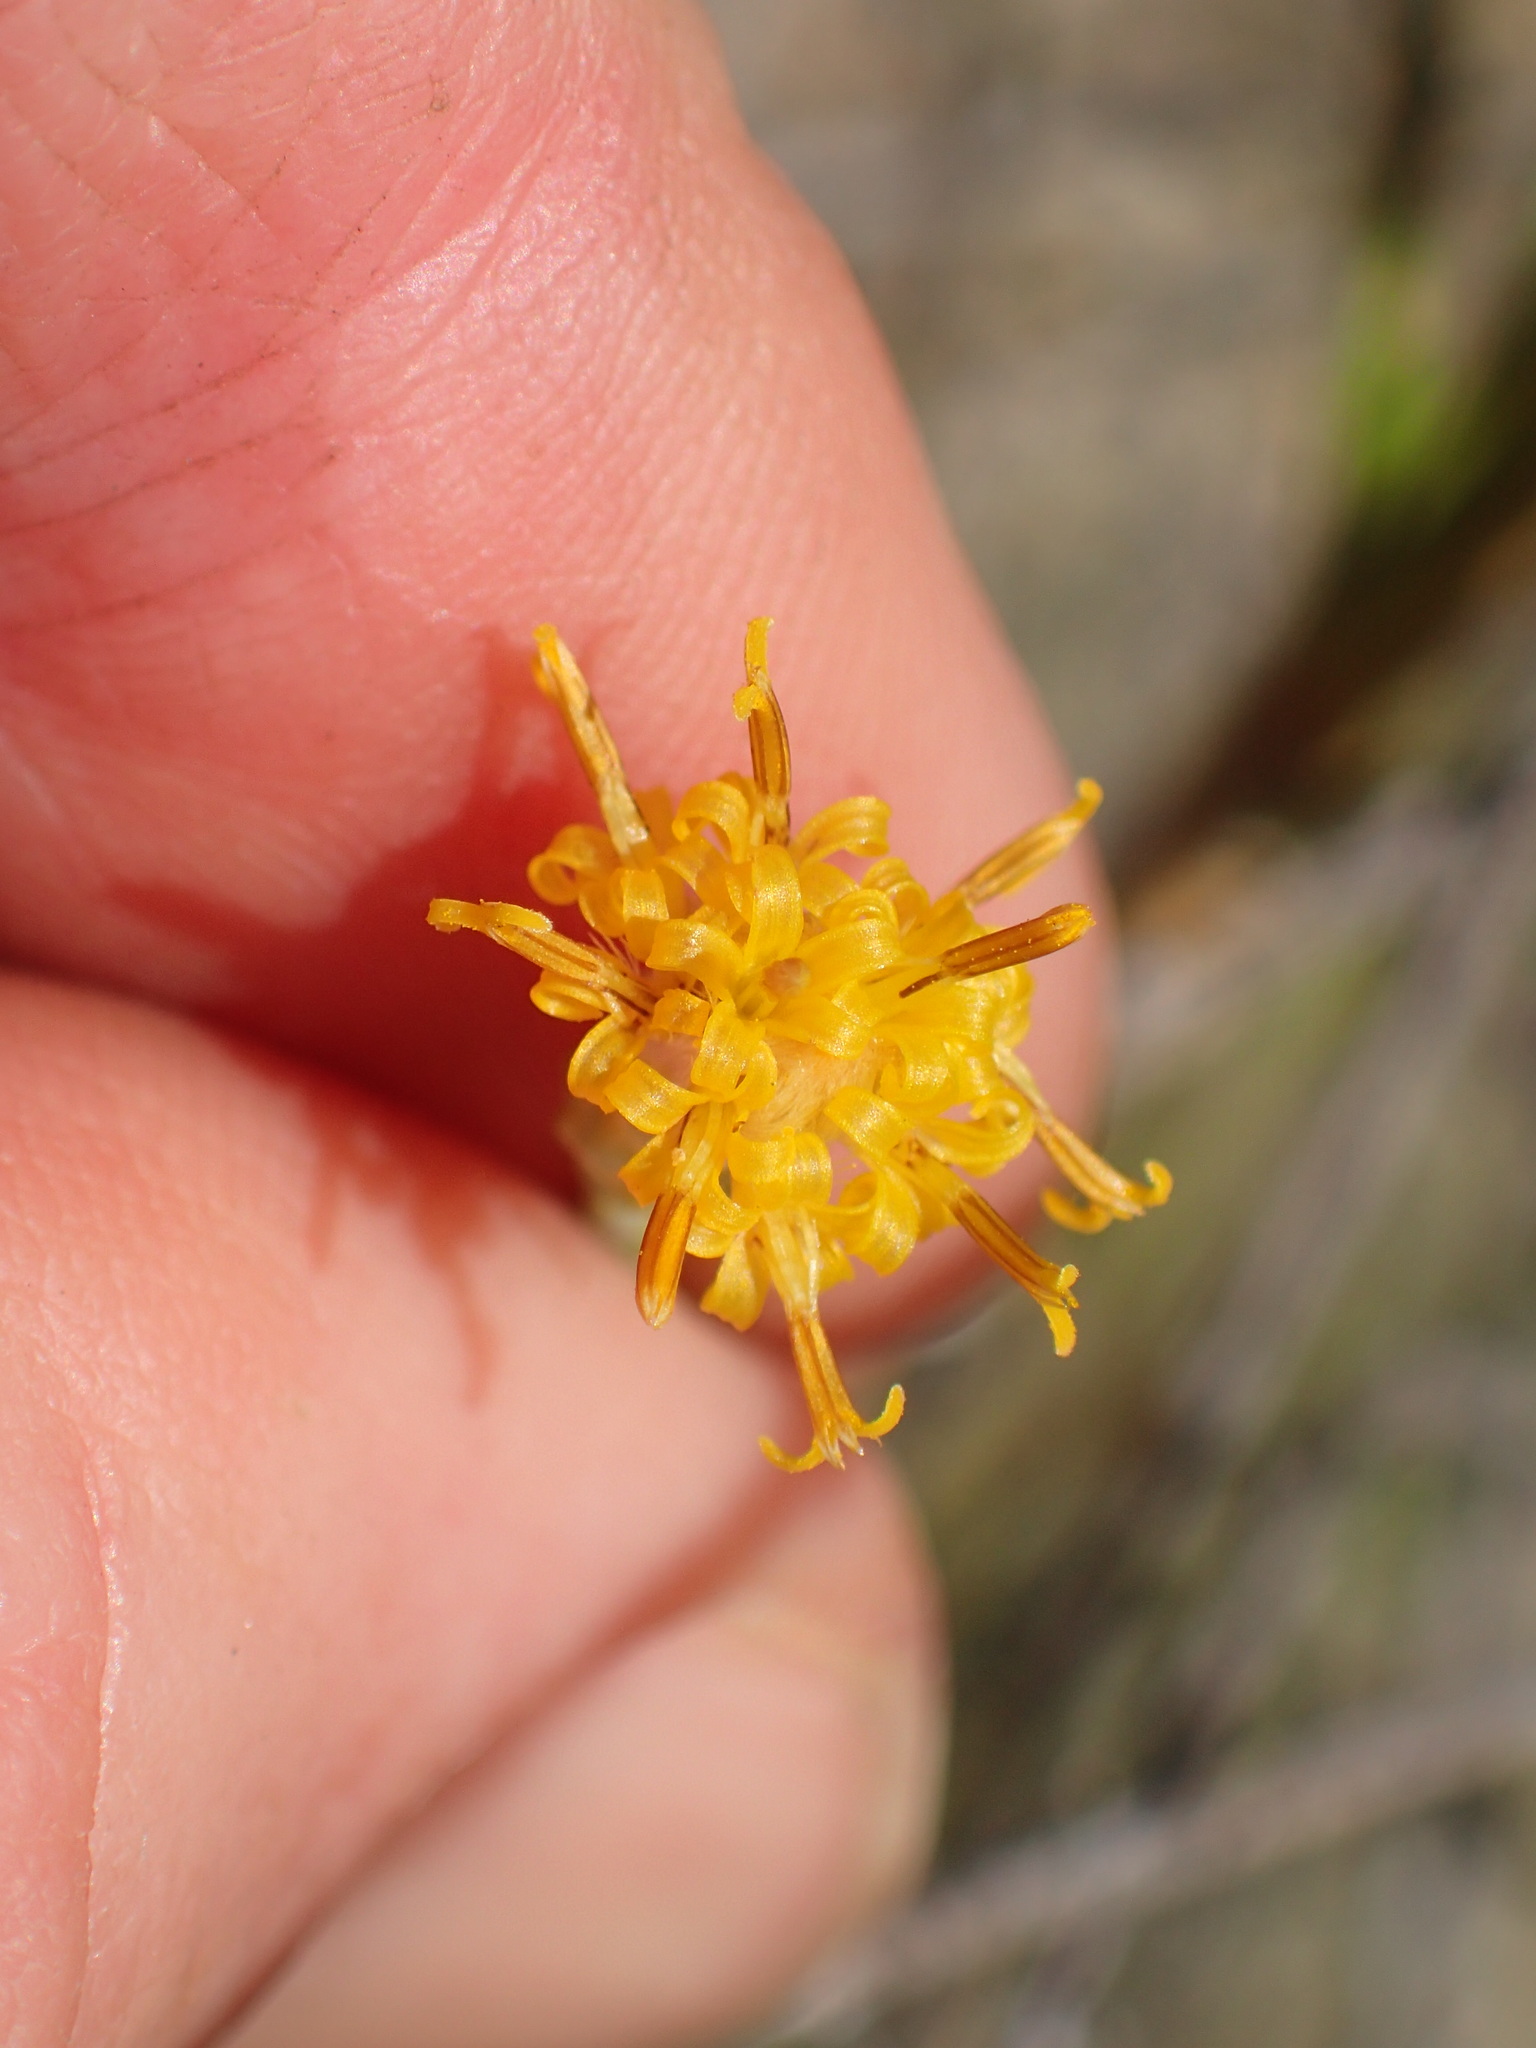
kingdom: Plantae
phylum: Tracheophyta
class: Magnoliopsida
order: Asterales
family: Asteraceae
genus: Lepidospartum
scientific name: Lepidospartum squamatum
